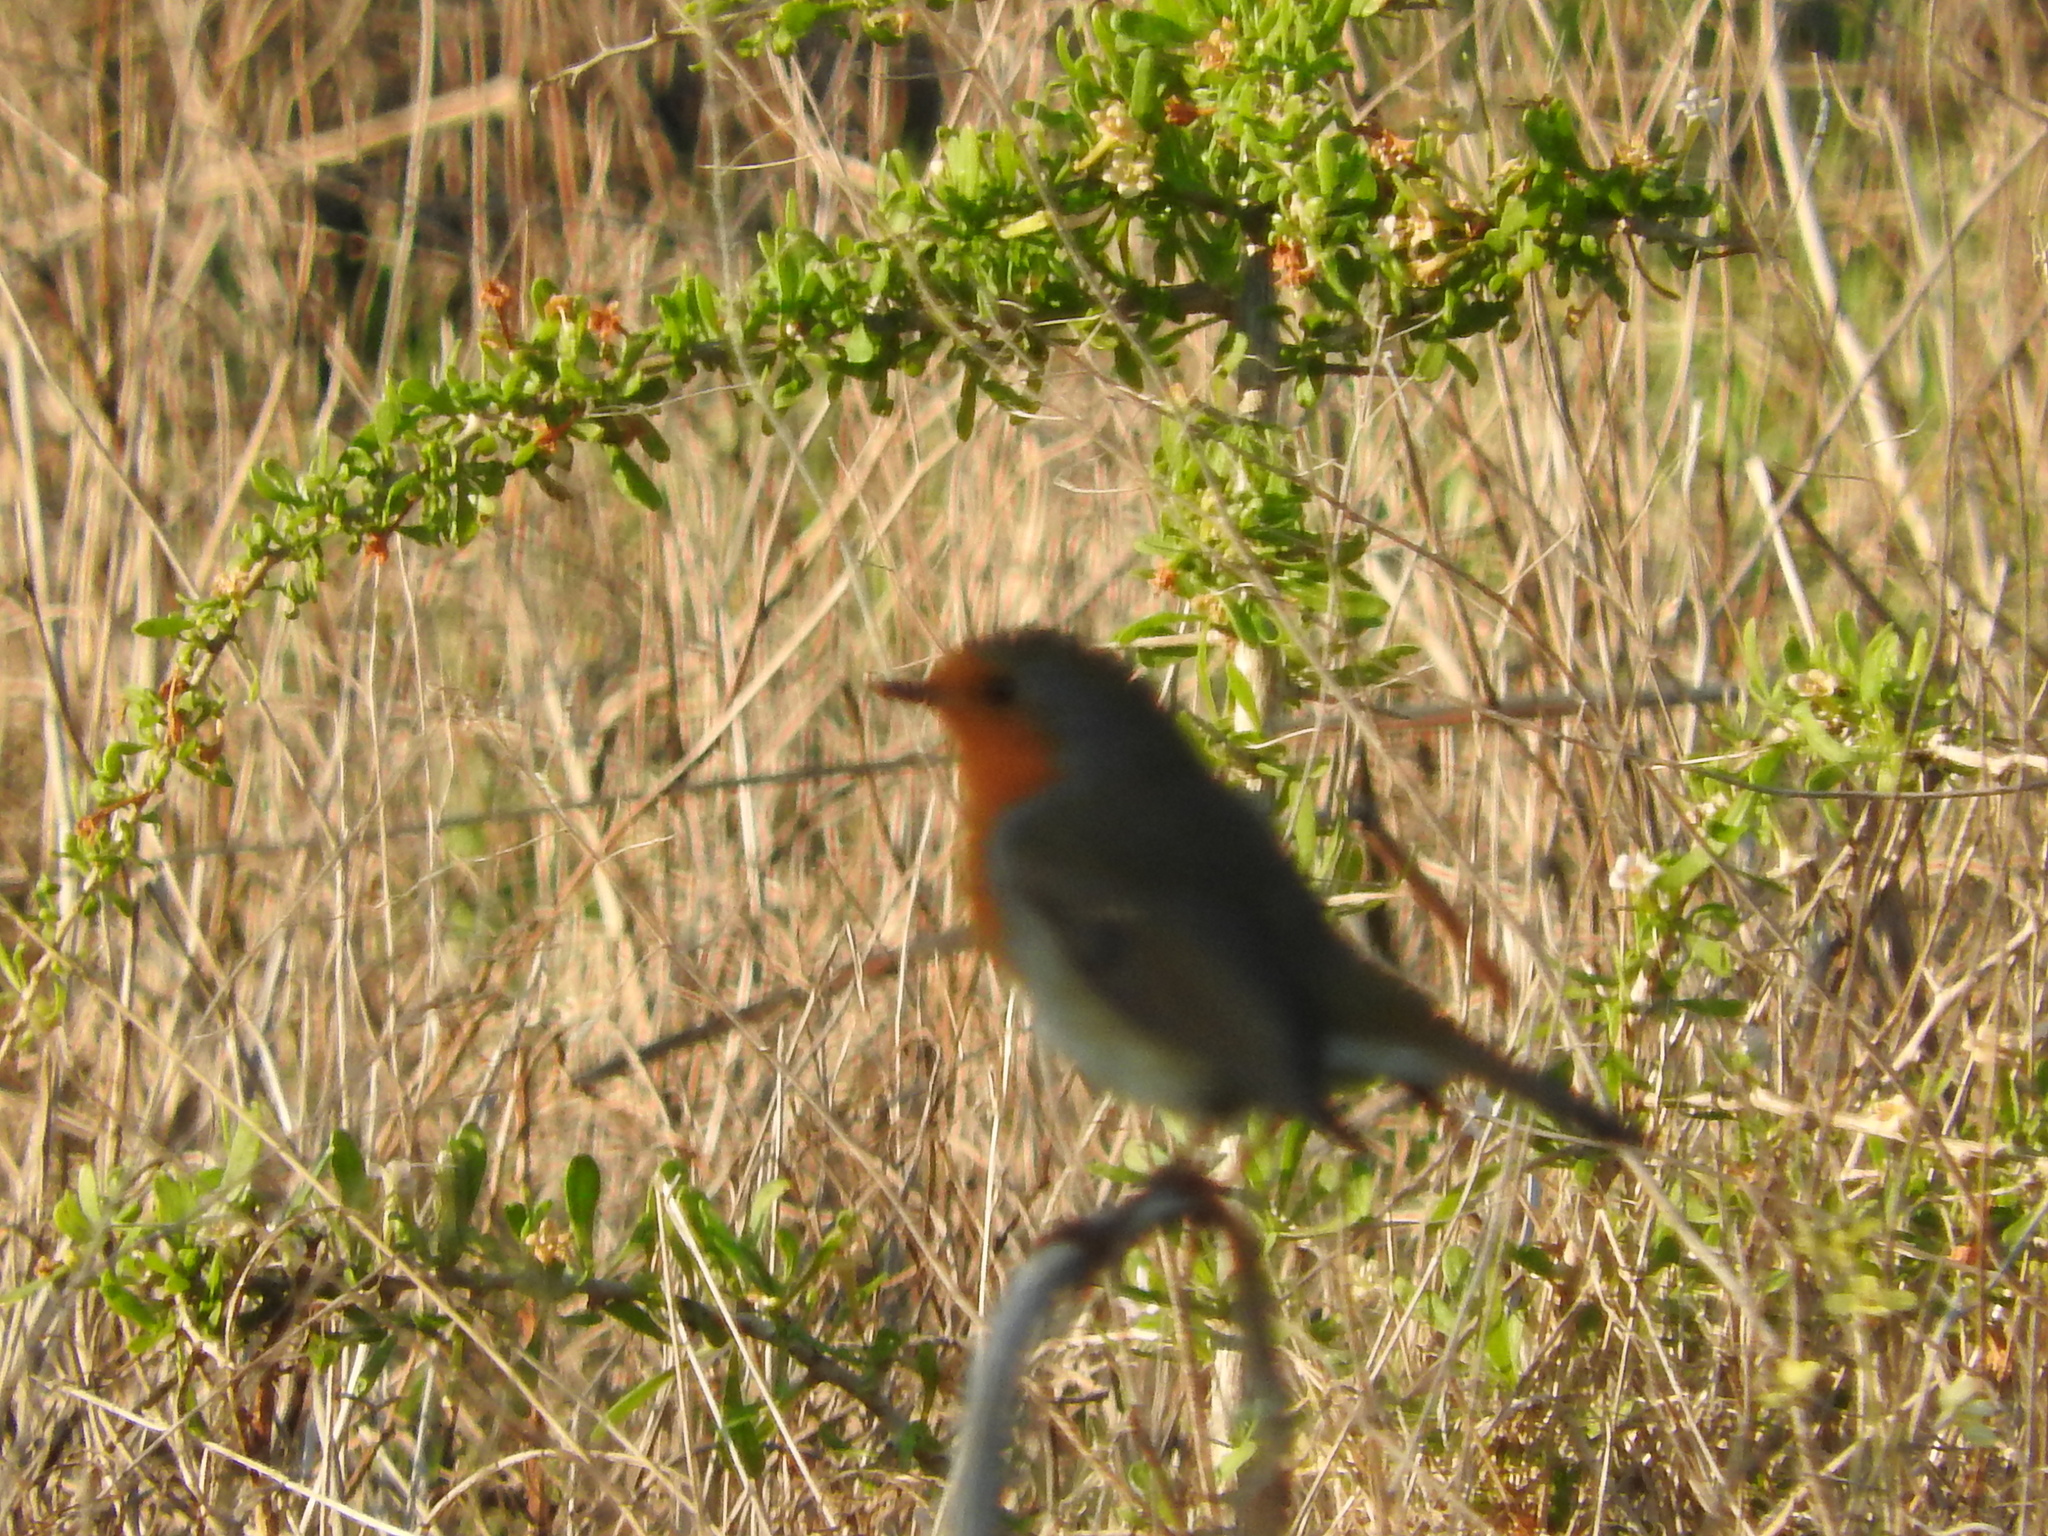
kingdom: Animalia
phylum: Chordata
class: Aves
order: Passeriformes
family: Muscicapidae
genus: Erithacus
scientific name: Erithacus rubecula
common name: European robin
